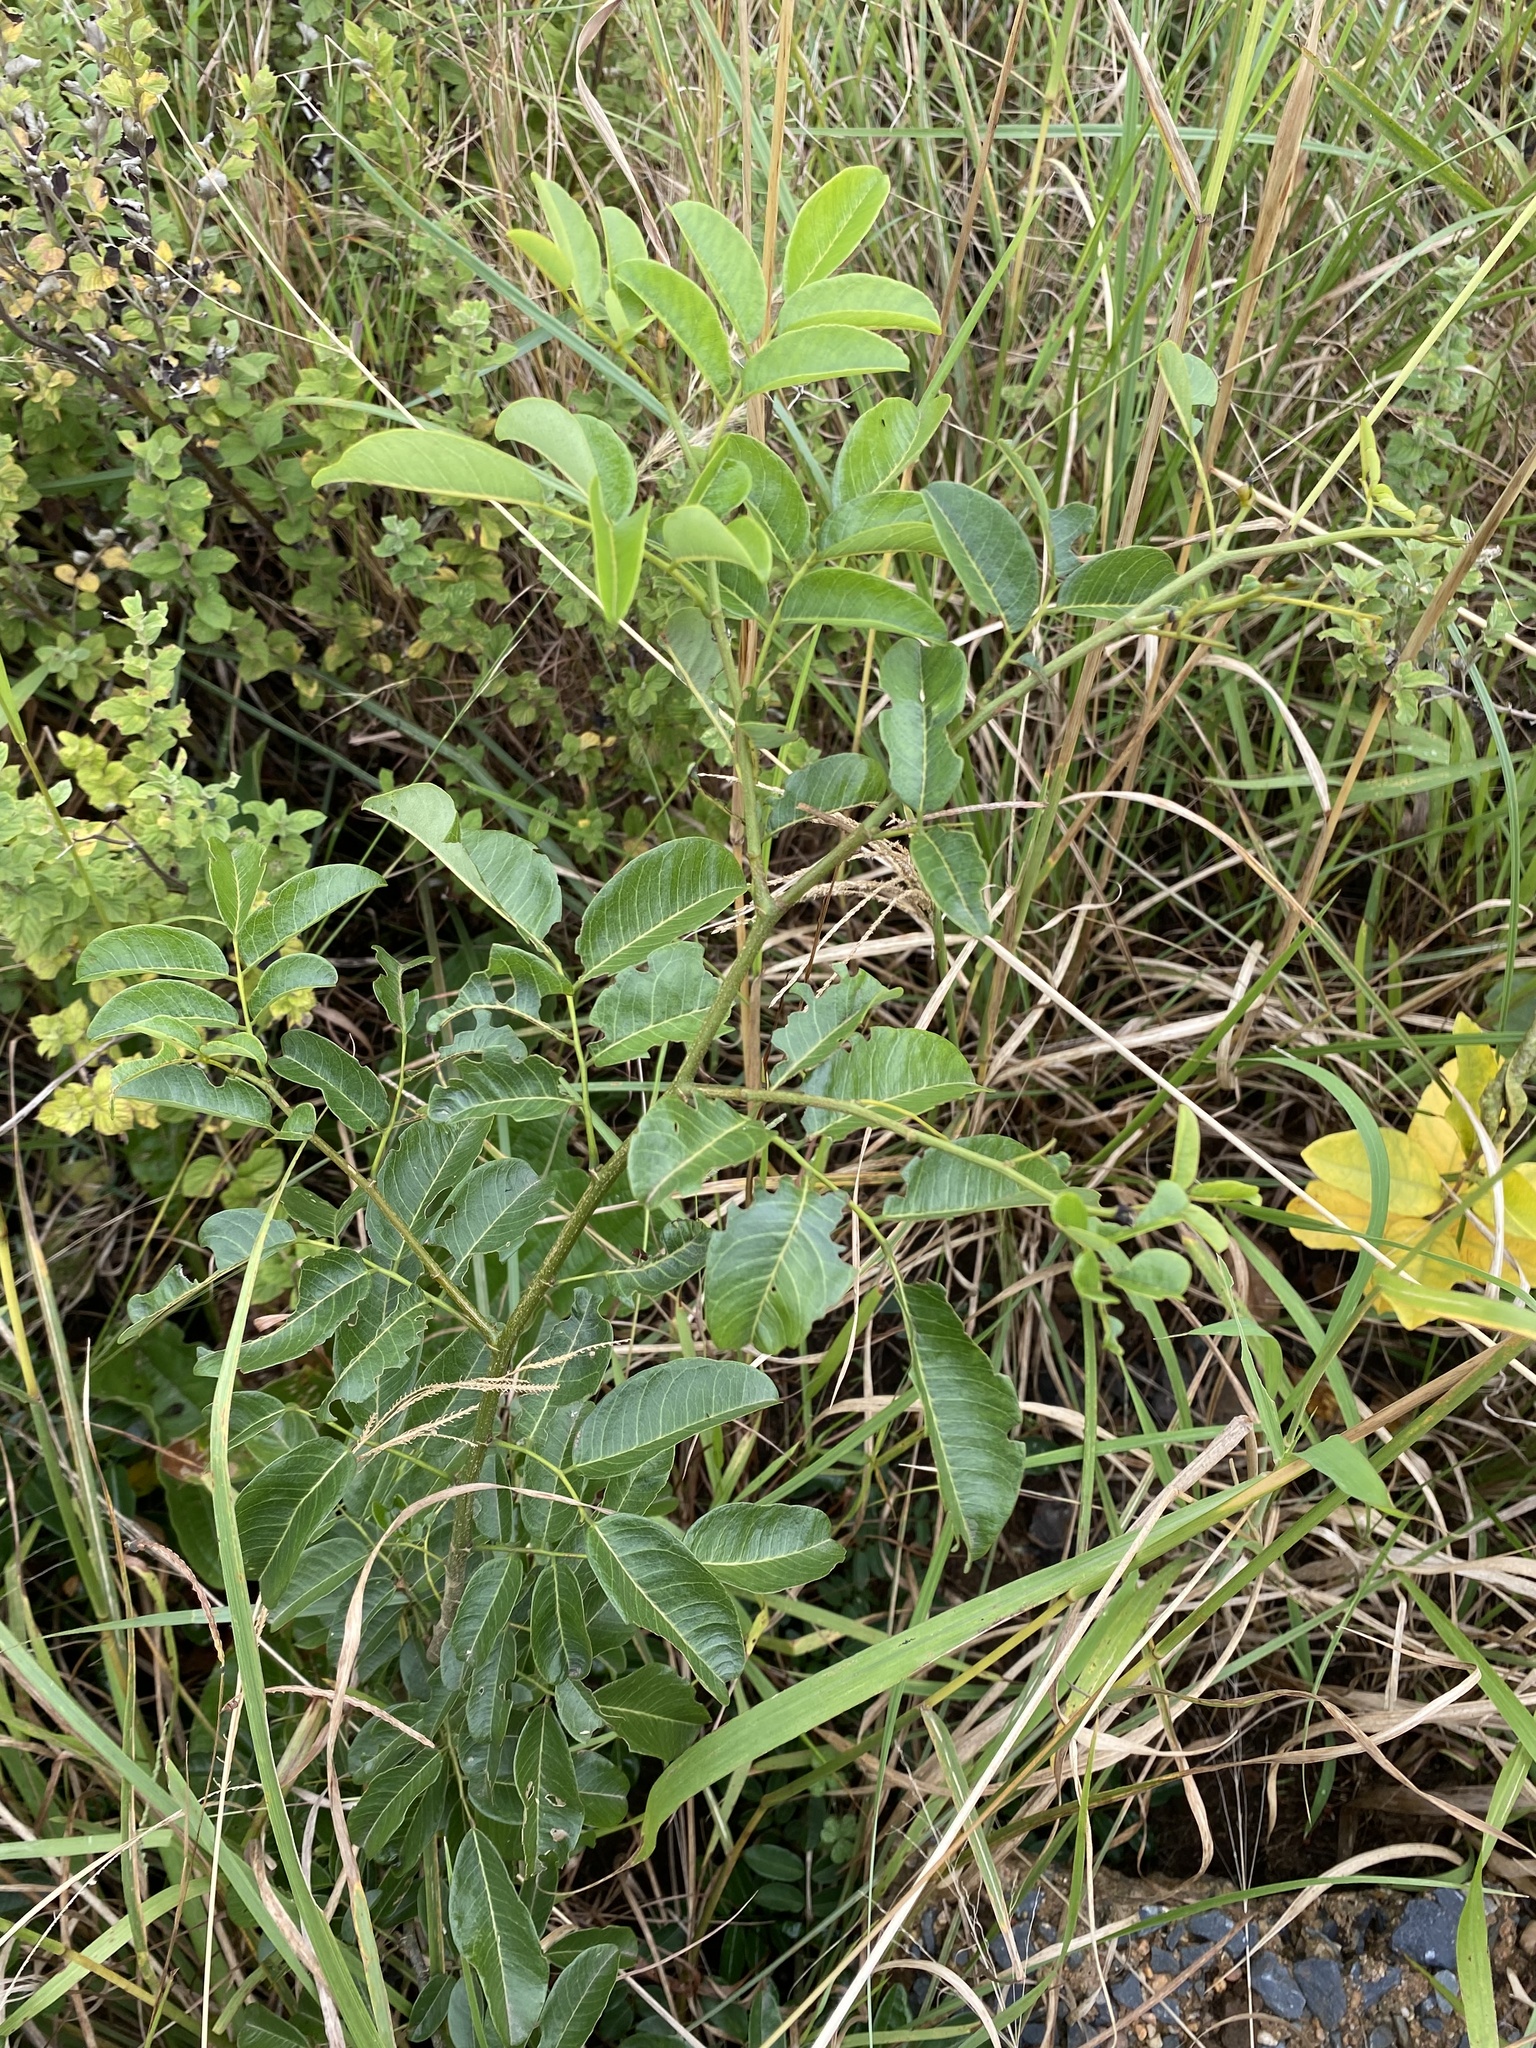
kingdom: Plantae
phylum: Tracheophyta
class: Magnoliopsida
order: Fabales
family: Fabaceae
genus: Dalbergia
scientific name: Dalbergia obovata
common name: Climbing flat-bean
